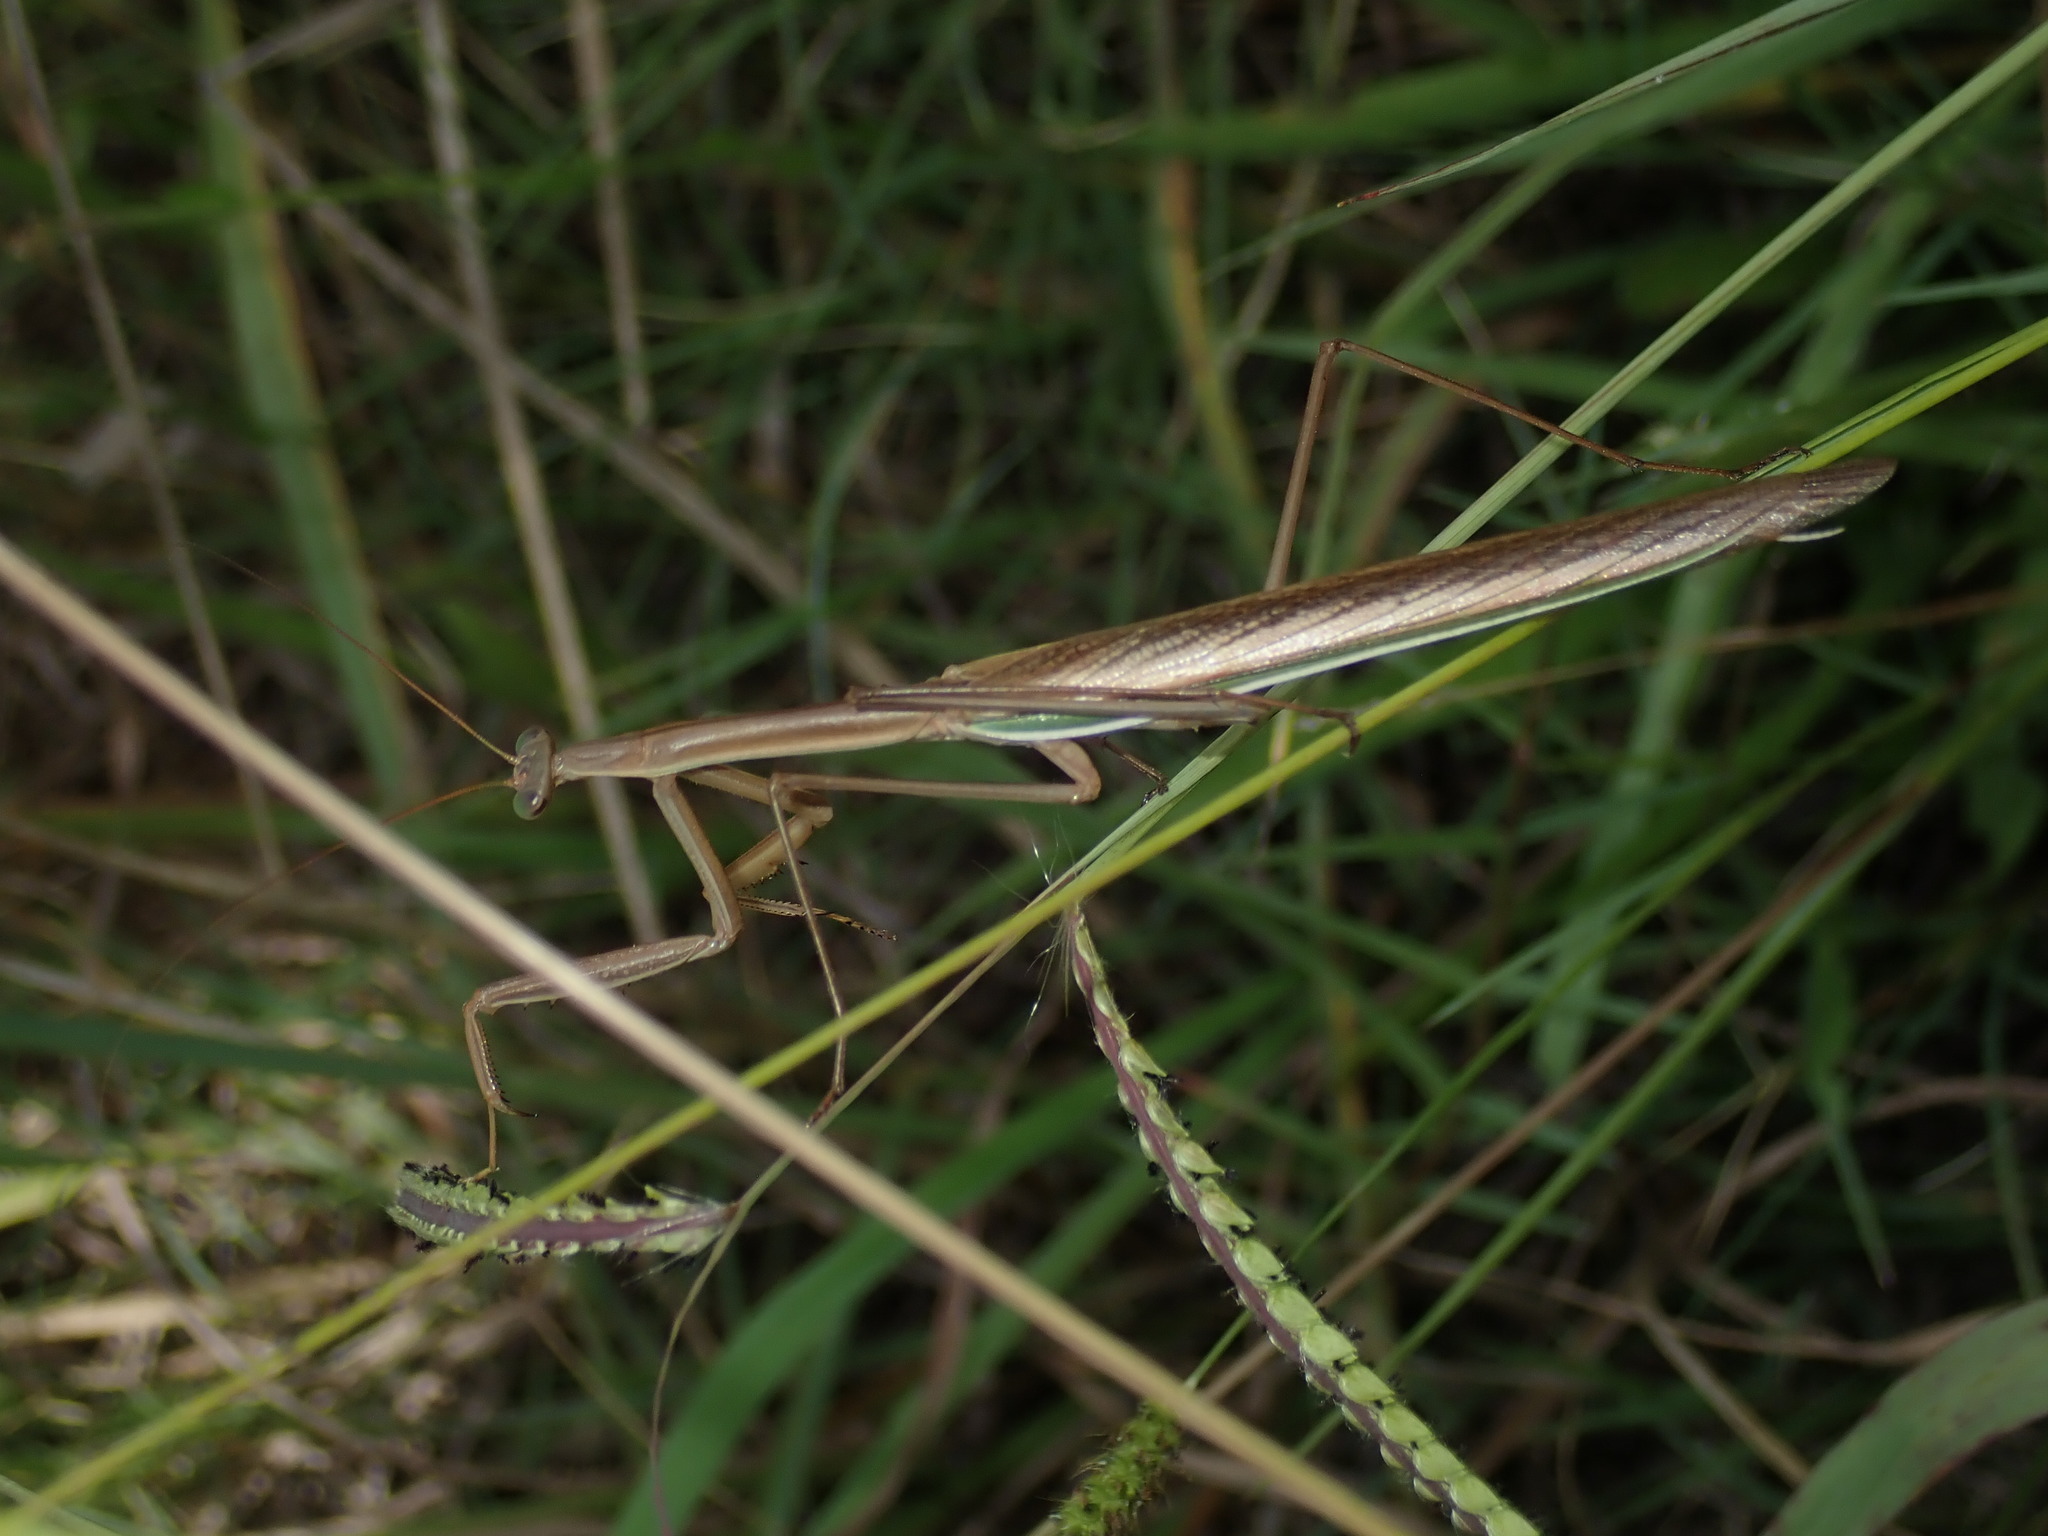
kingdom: Animalia
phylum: Arthropoda
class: Insecta
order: Mantodea
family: Mantidae
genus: Tenodera
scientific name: Tenodera australasiae
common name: Purple-winged mantis
